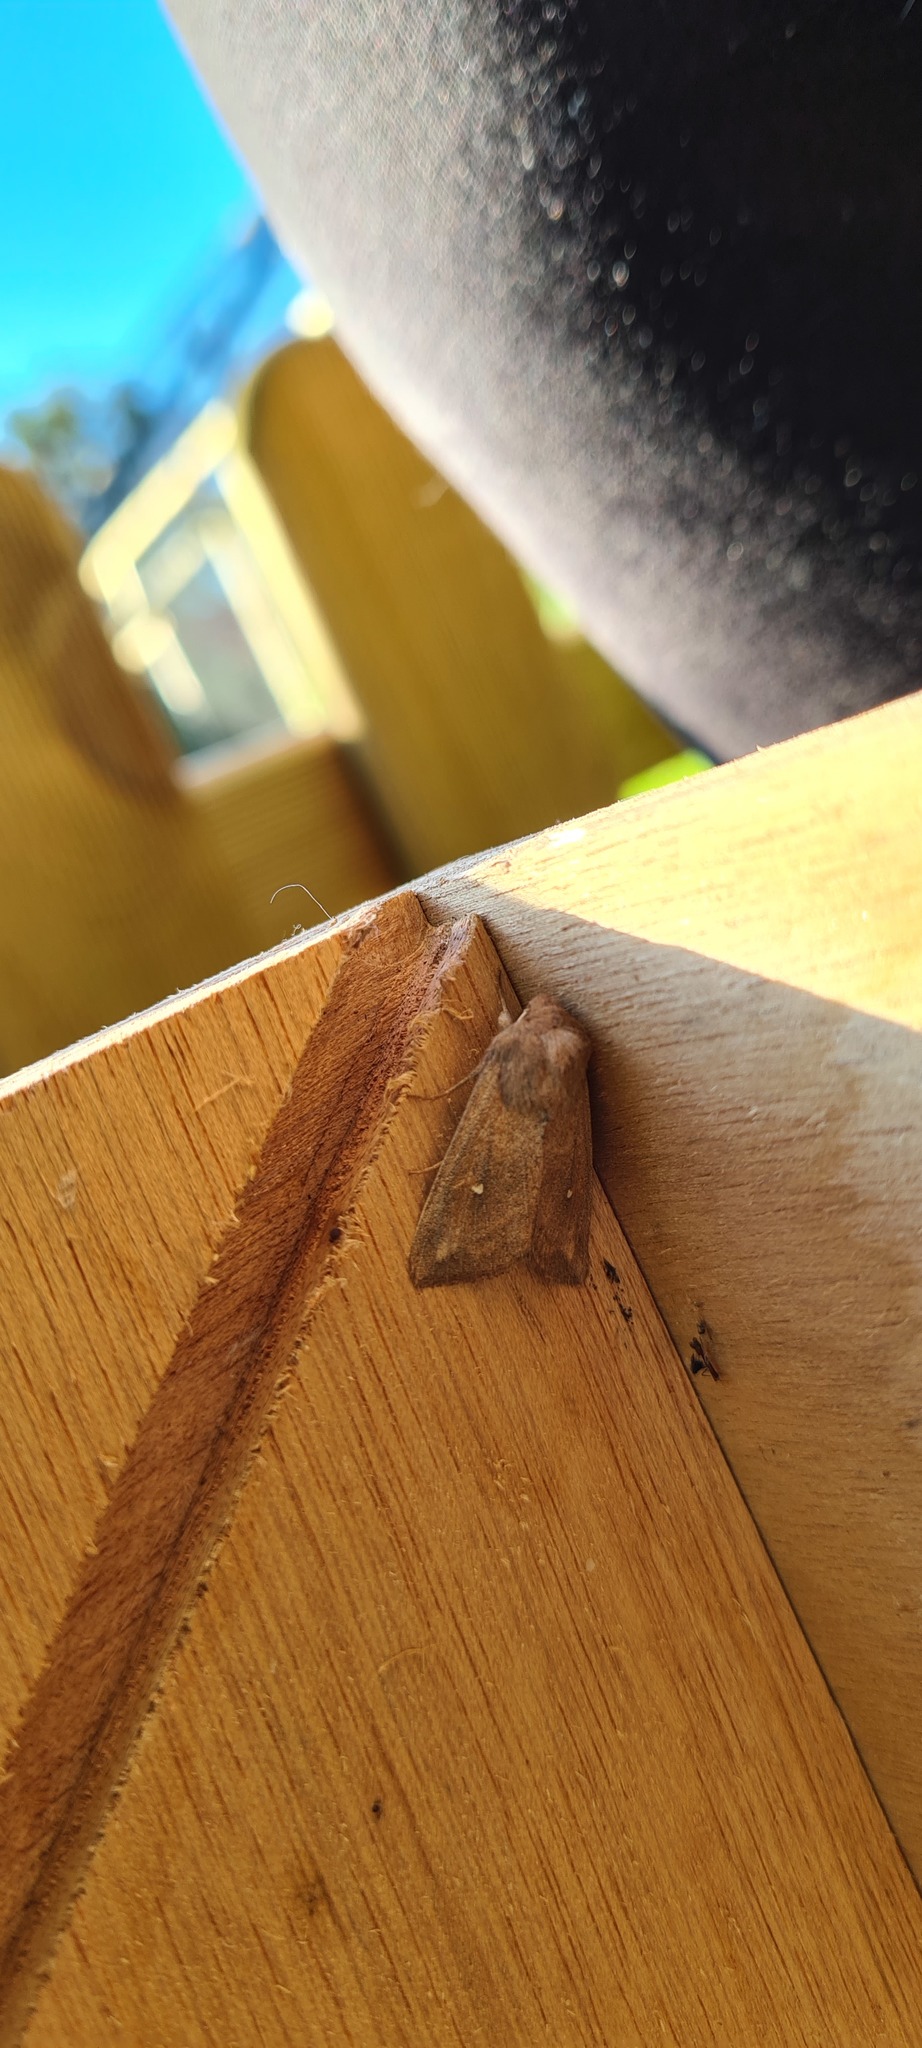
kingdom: Animalia
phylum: Arthropoda
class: Insecta
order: Lepidoptera
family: Noctuidae
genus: Mythimna
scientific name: Mythimna albipuncta
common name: White-point
